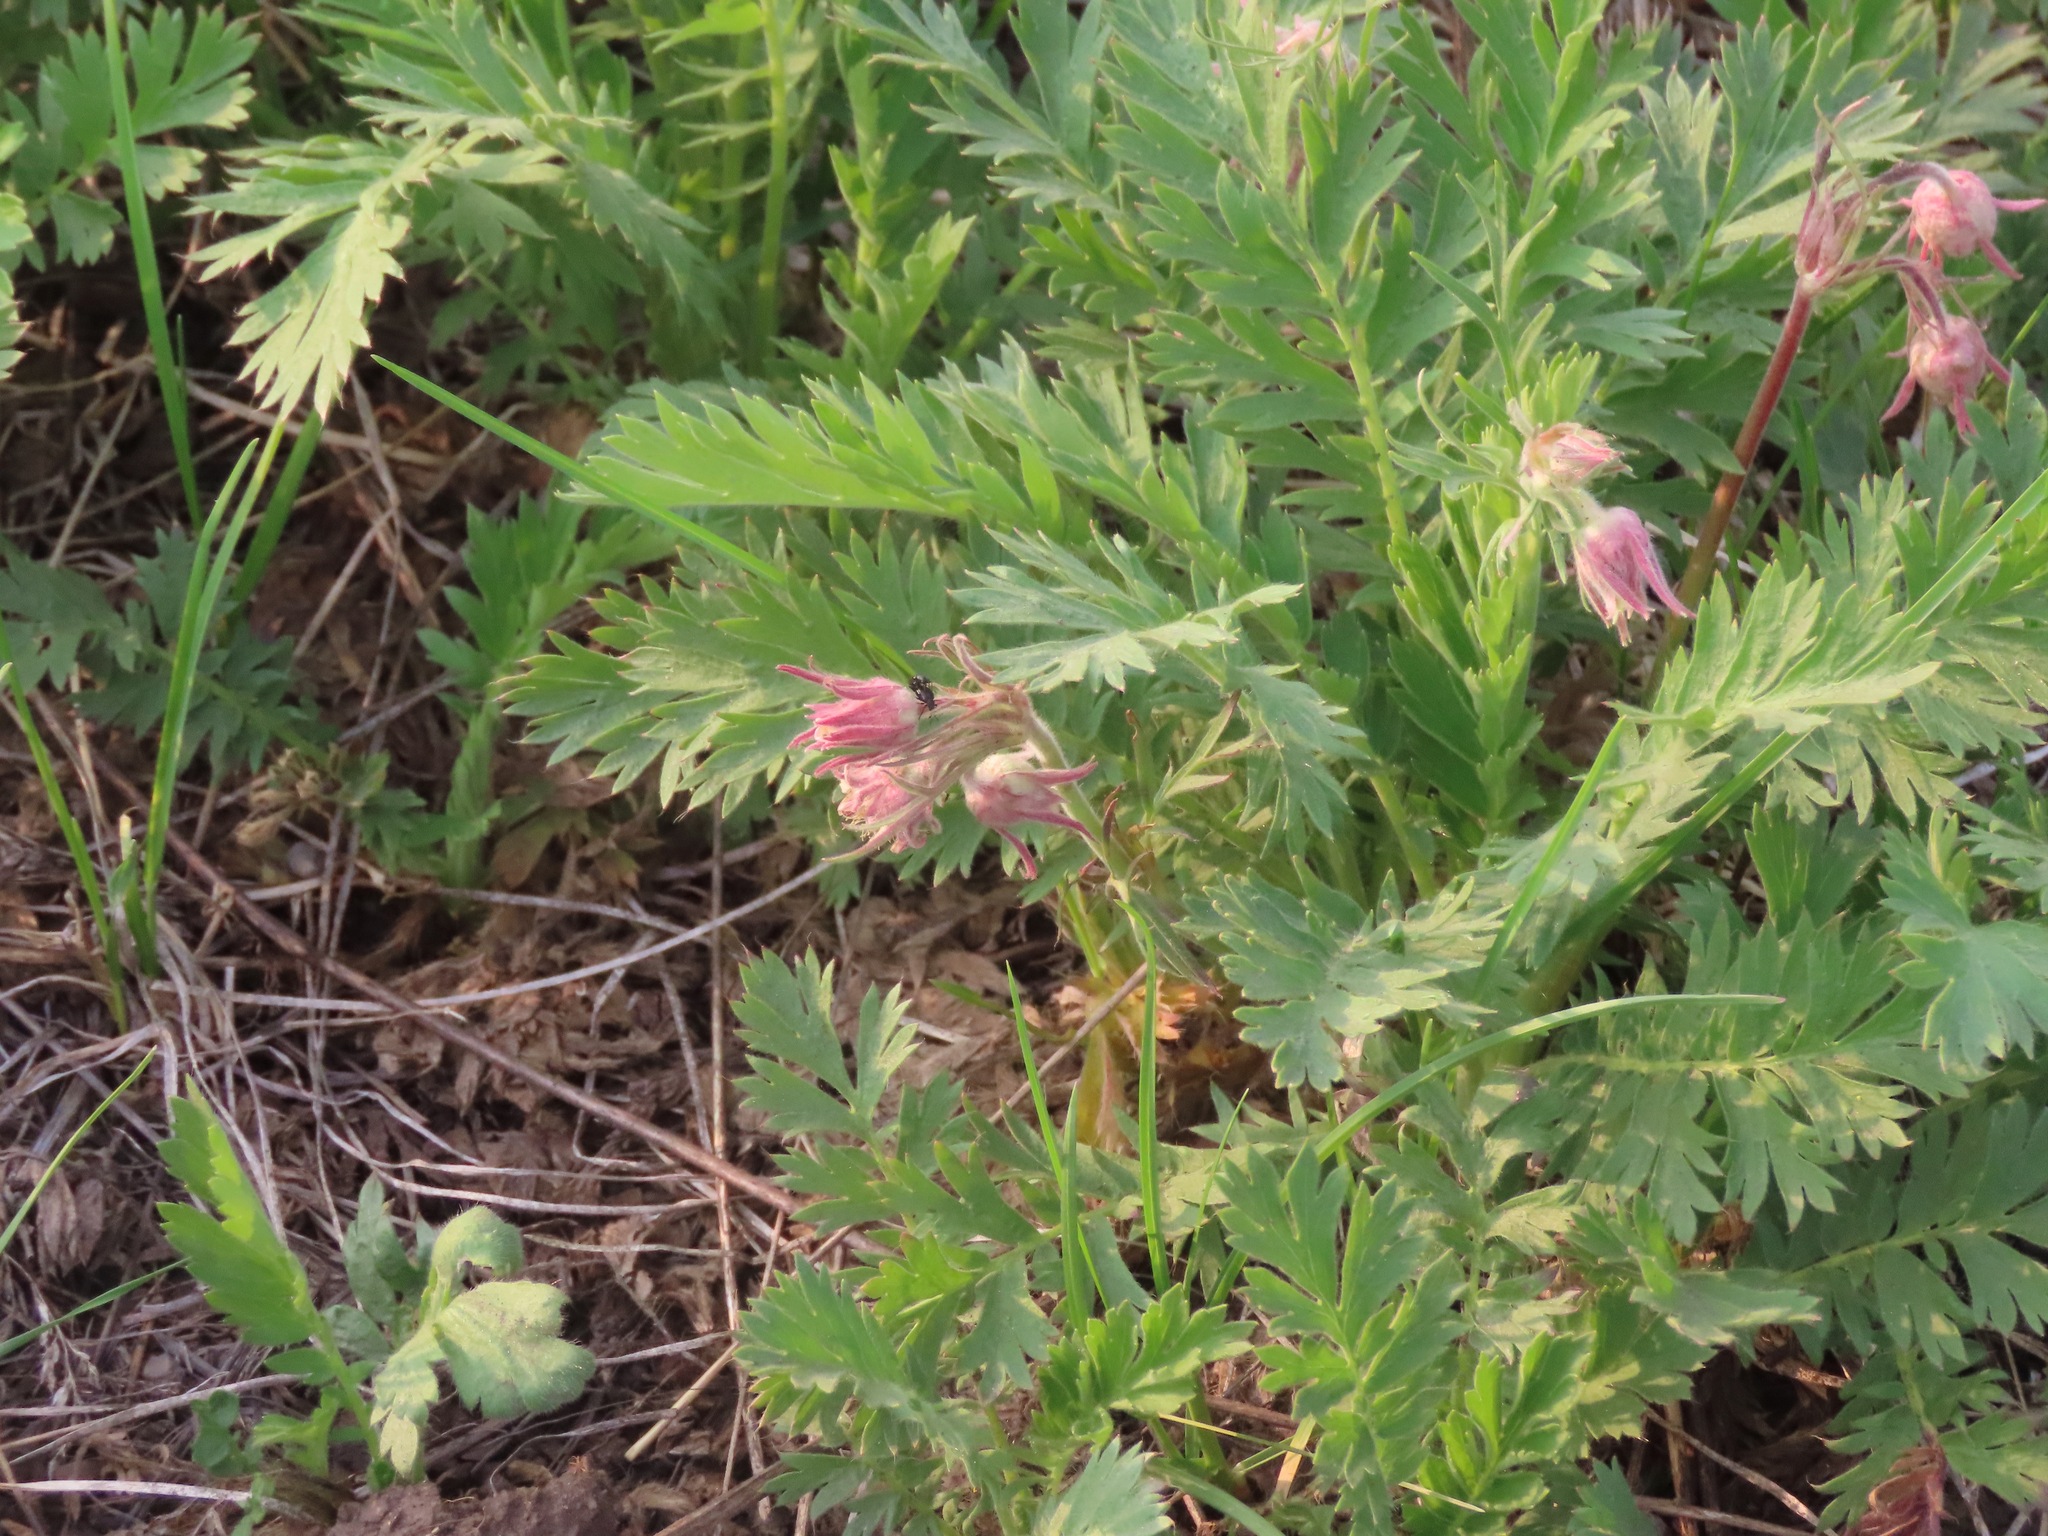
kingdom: Plantae
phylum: Tracheophyta
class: Magnoliopsida
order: Rosales
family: Rosaceae
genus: Geum
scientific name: Geum triflorum
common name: Old man's whiskers
